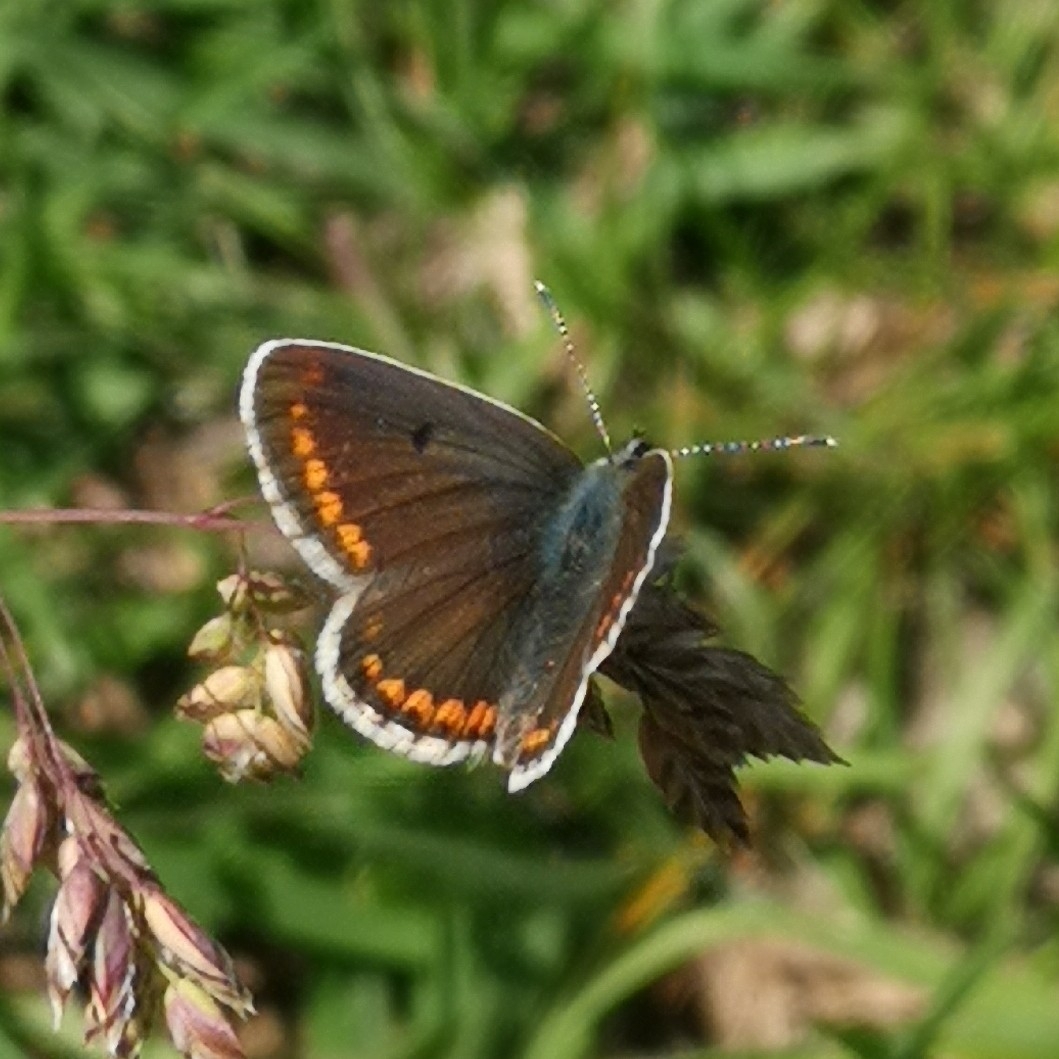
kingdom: Animalia
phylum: Arthropoda
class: Insecta
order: Lepidoptera
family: Lycaenidae
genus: Aricia
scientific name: Aricia agestis
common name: Brown argus
